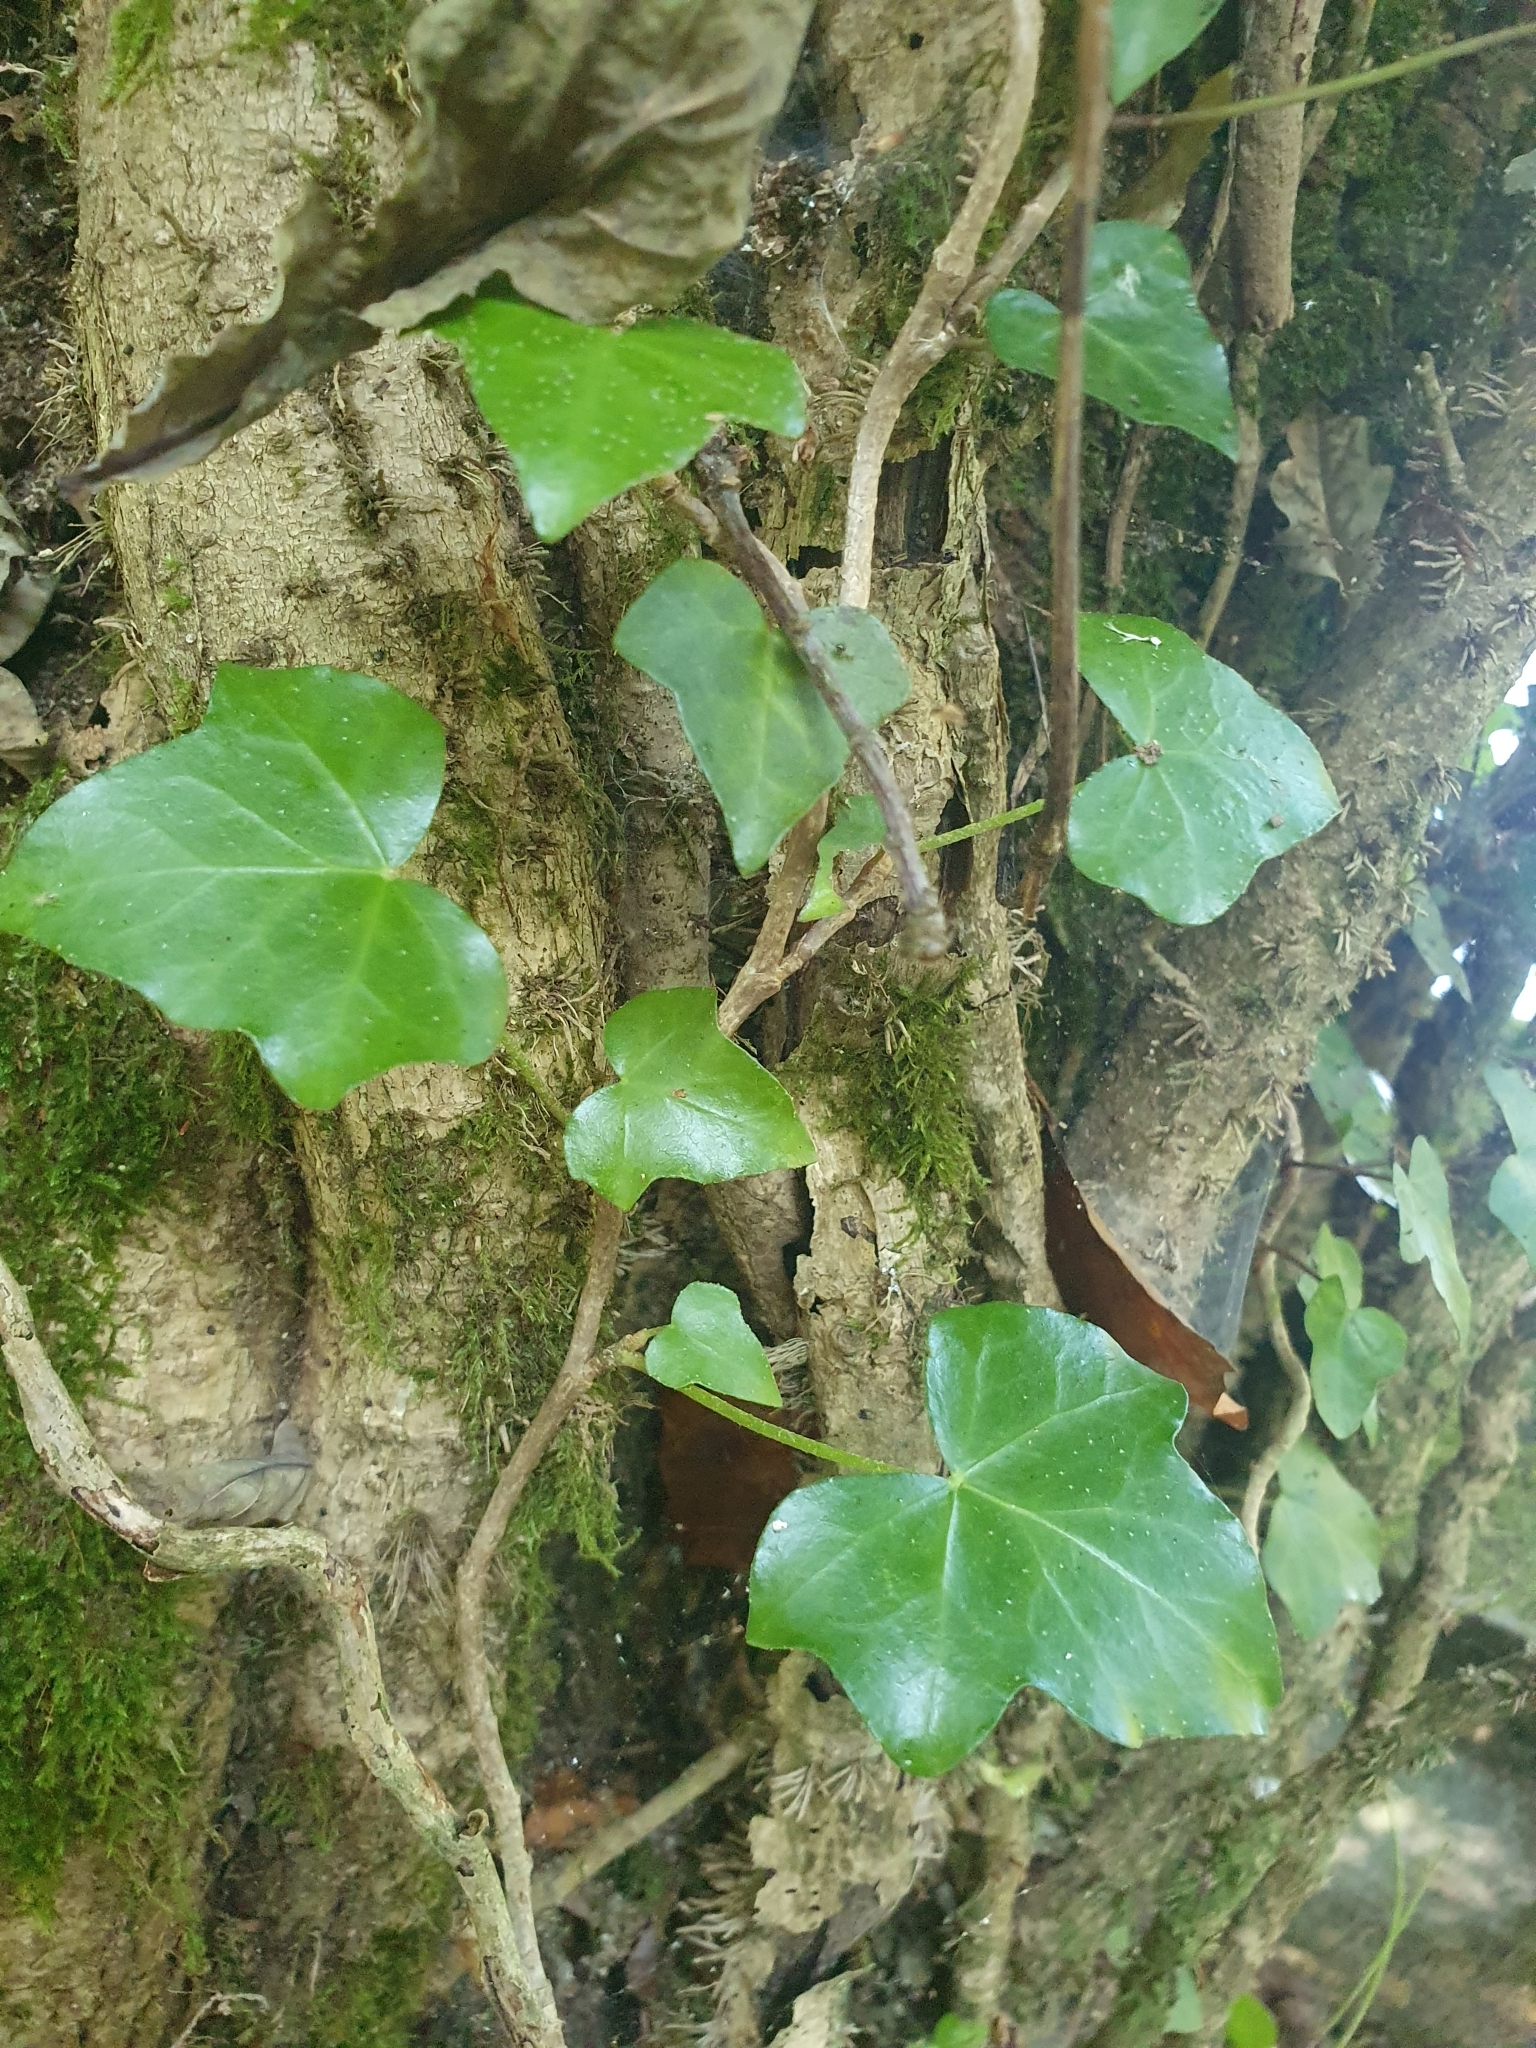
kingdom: Plantae
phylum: Tracheophyta
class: Magnoliopsida
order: Apiales
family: Araliaceae
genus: Hedera
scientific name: Hedera hibernica
